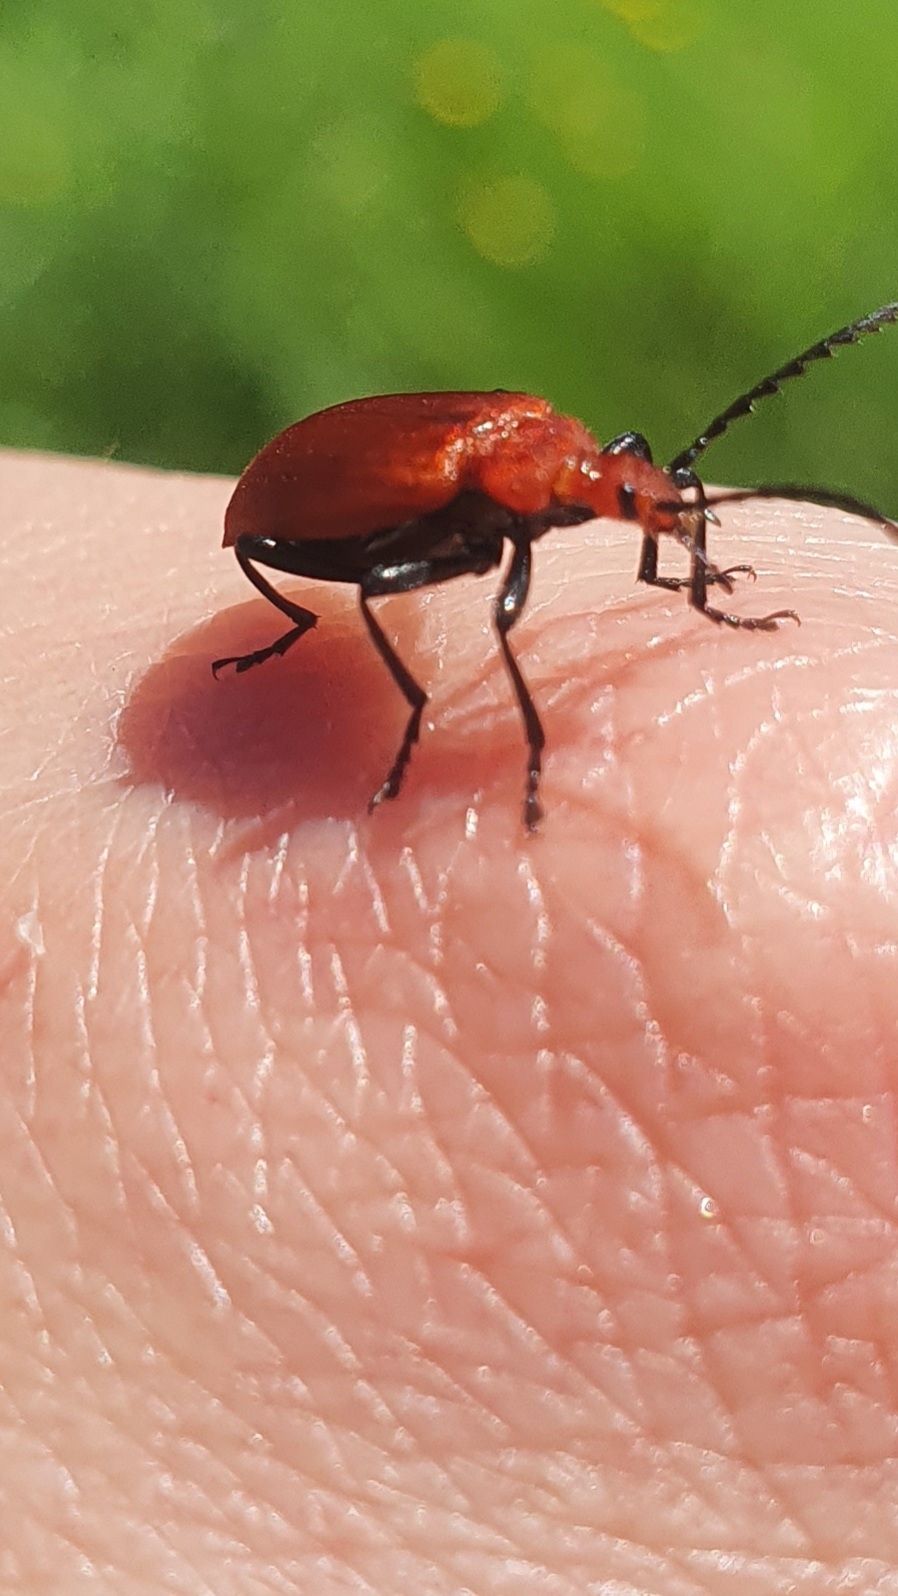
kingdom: Animalia
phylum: Arthropoda
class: Insecta
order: Coleoptera
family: Pyrochroidae
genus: Pyrochroa
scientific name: Pyrochroa serraticornis
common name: Red-headed cardinal beetle
